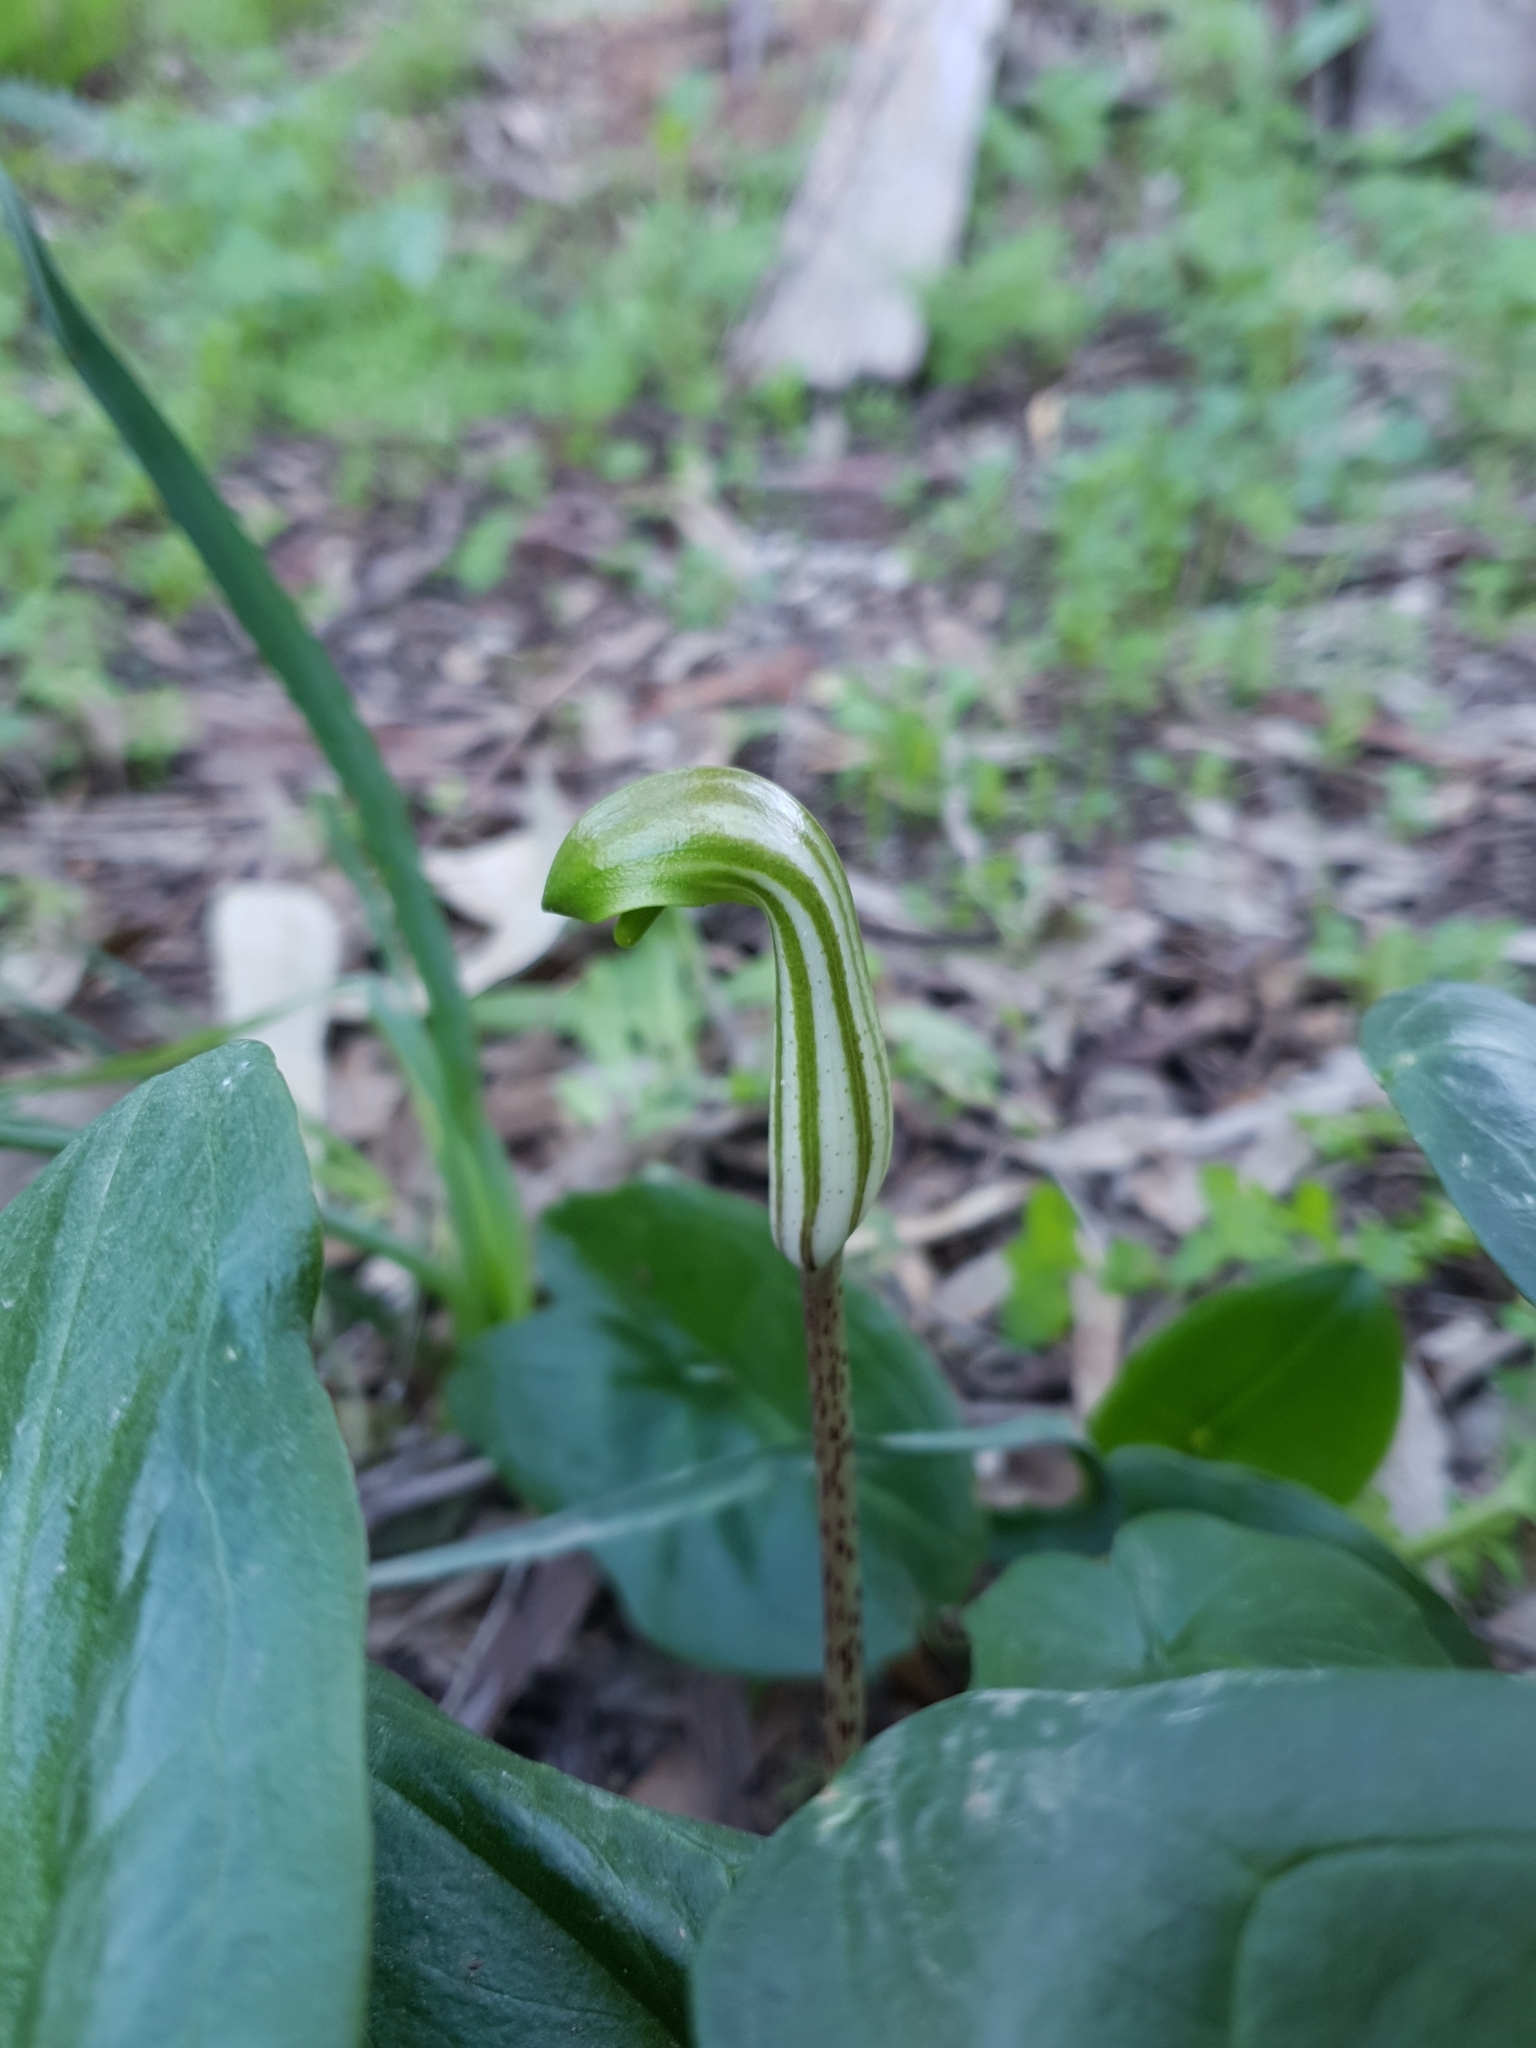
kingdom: Plantae
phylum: Tracheophyta
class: Liliopsida
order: Alismatales
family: Araceae
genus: Arisarum
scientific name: Arisarum vulgare
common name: Common arisarum
